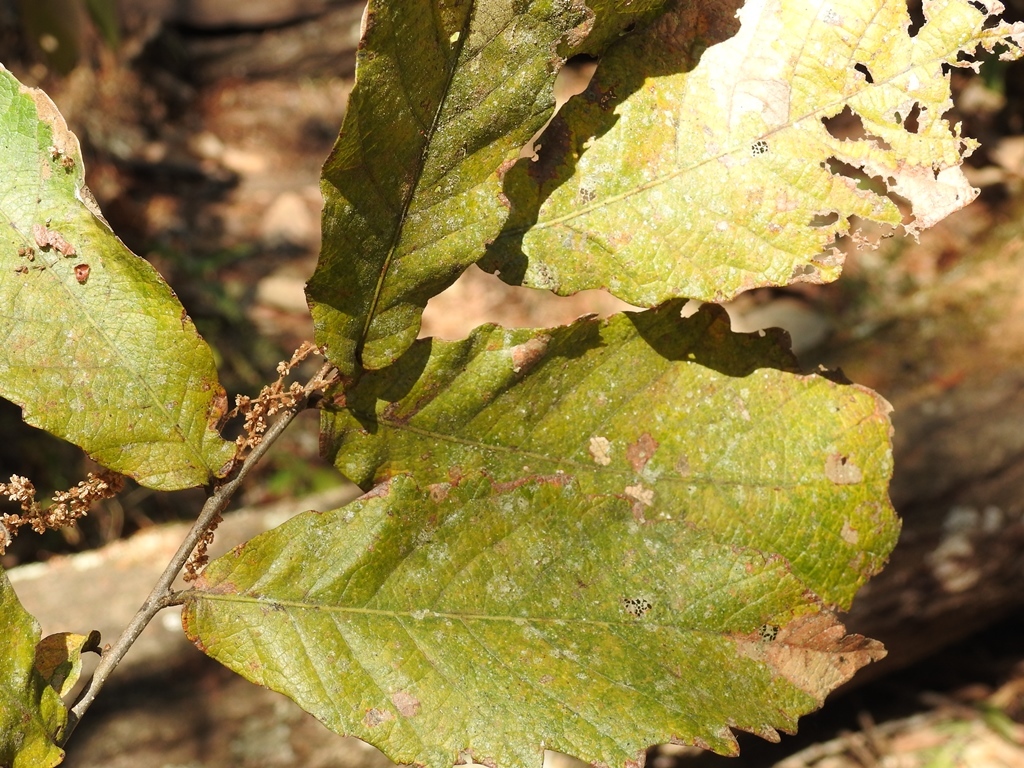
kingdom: Plantae
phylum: Tracheophyta
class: Magnoliopsida
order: Fagales
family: Fagaceae
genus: Quercus
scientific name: Quercus peduncularis
